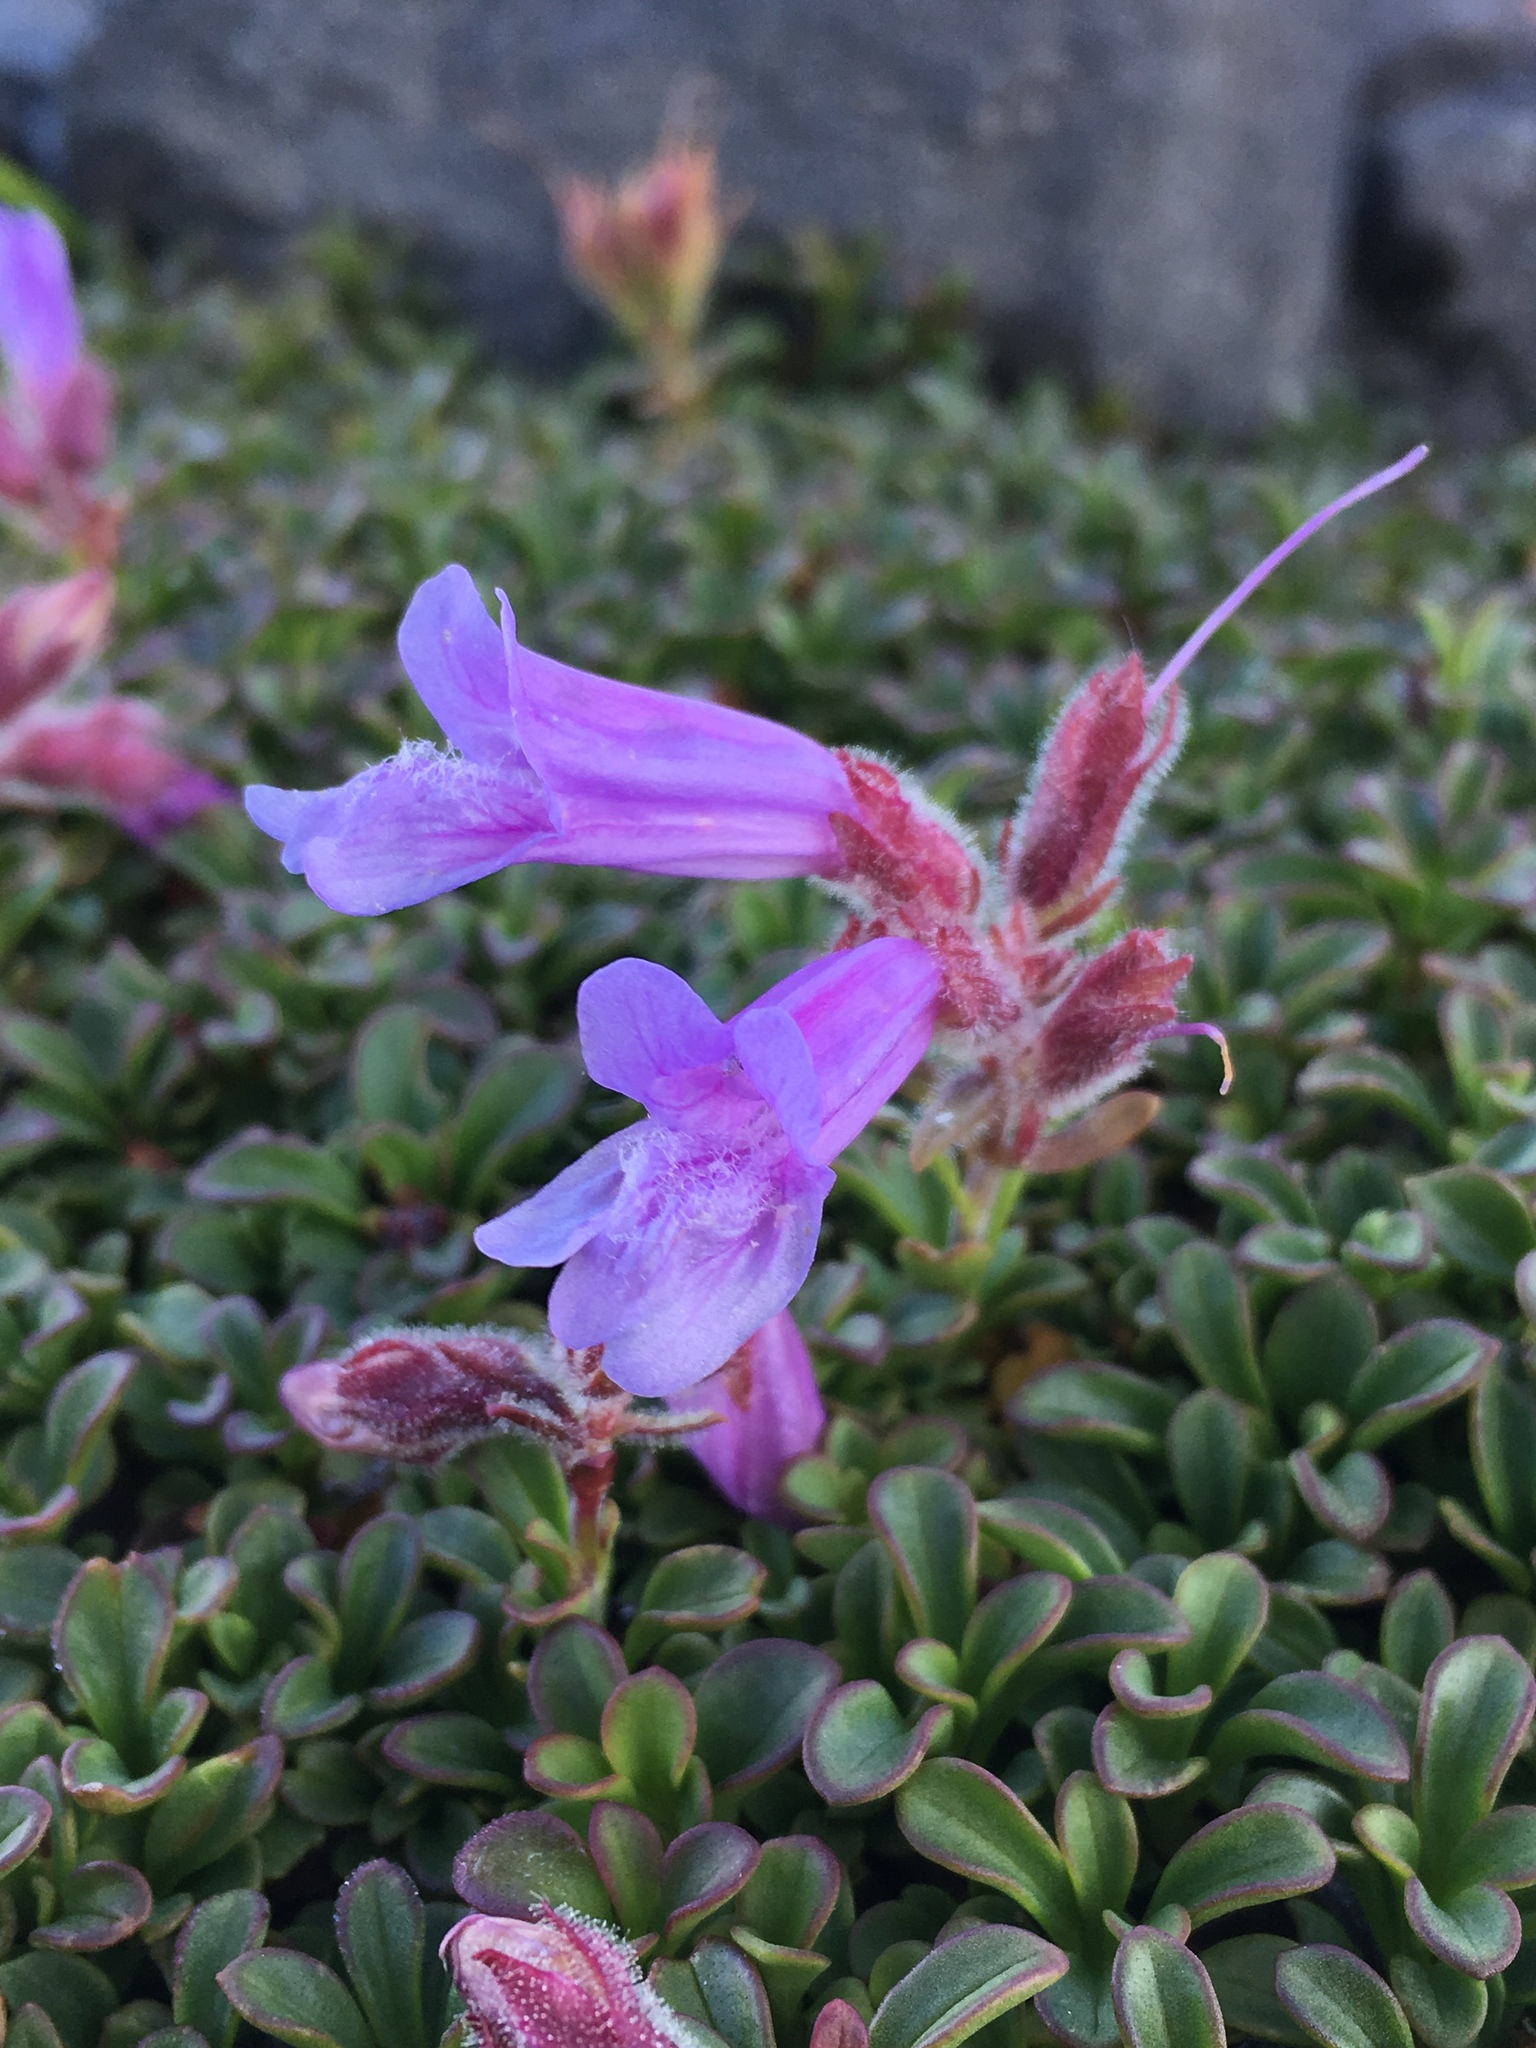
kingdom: Plantae
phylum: Tracheophyta
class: Magnoliopsida
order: Lamiales
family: Plantaginaceae
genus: Penstemon
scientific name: Penstemon davidsonii
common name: Davidson's penstemon
